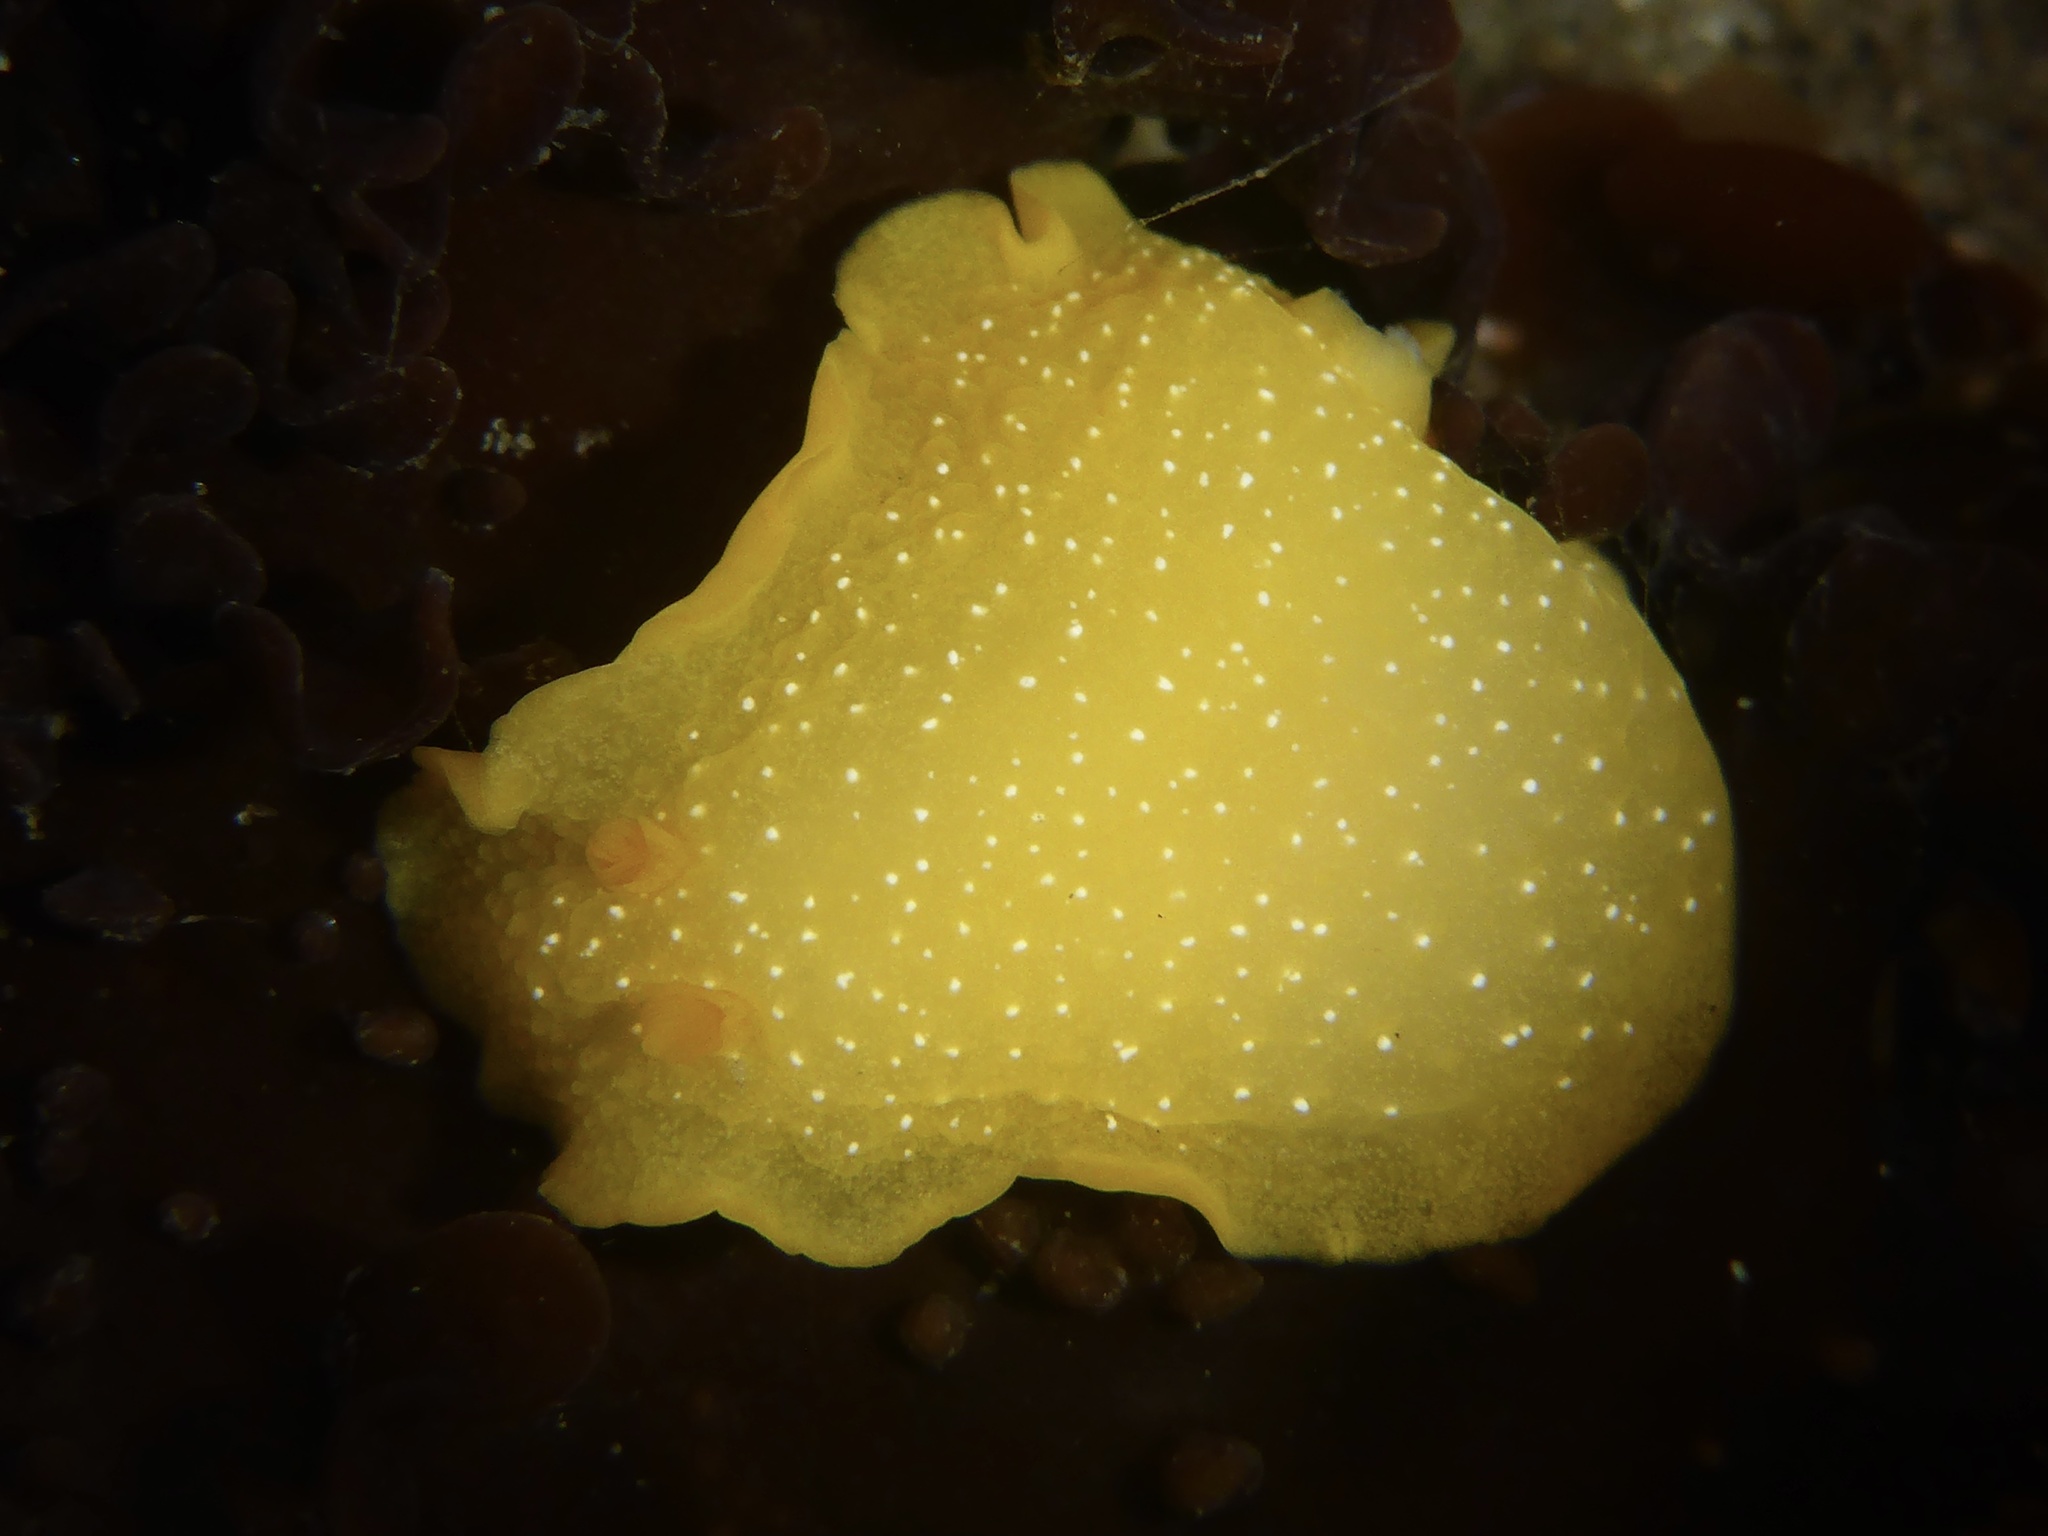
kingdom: Animalia
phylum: Mollusca
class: Gastropoda
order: Nudibranchia
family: Dendrodorididae
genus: Doriopsilla
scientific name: Doriopsilla fulva
